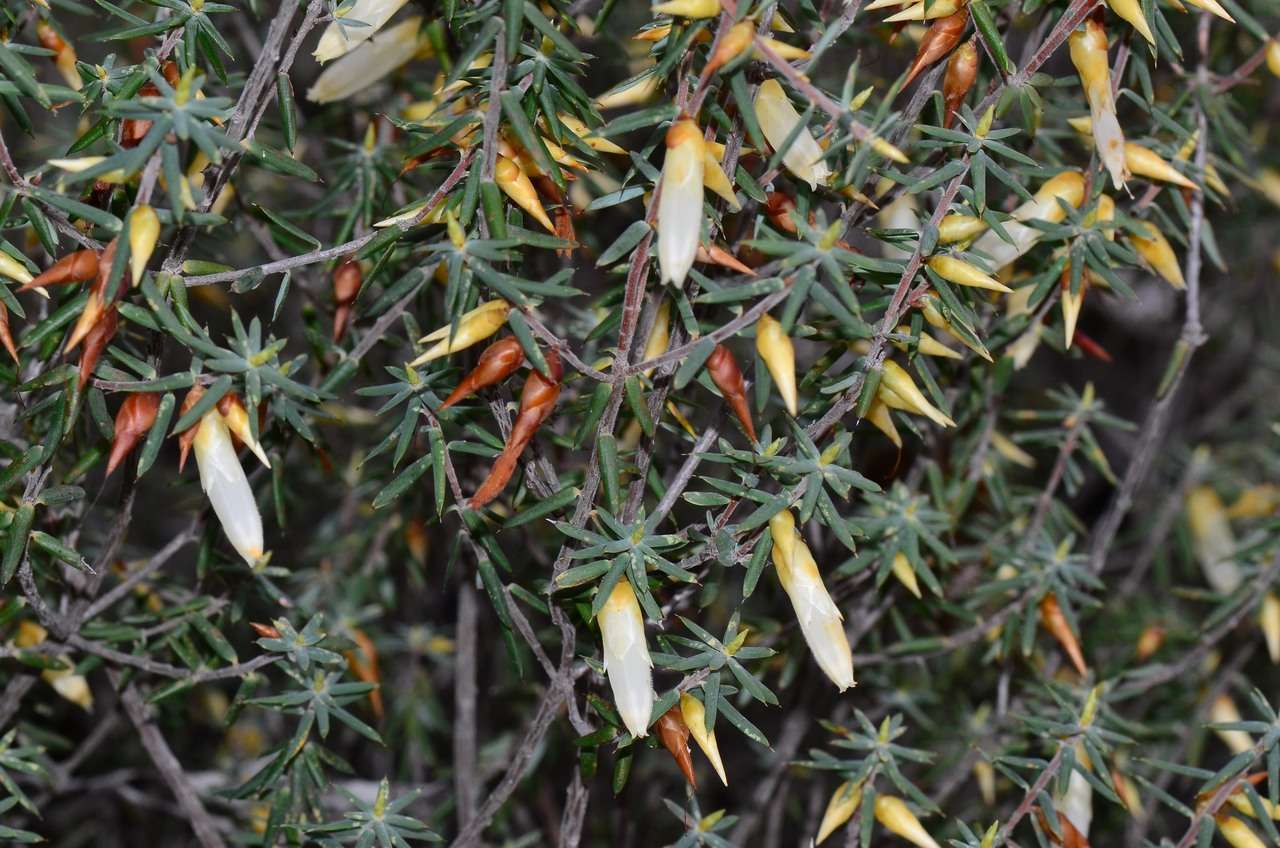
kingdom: Plantae
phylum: Tracheophyta
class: Magnoliopsida
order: Ericales
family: Ericaceae
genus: Stenanthera
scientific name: Stenanthera conostephioides
